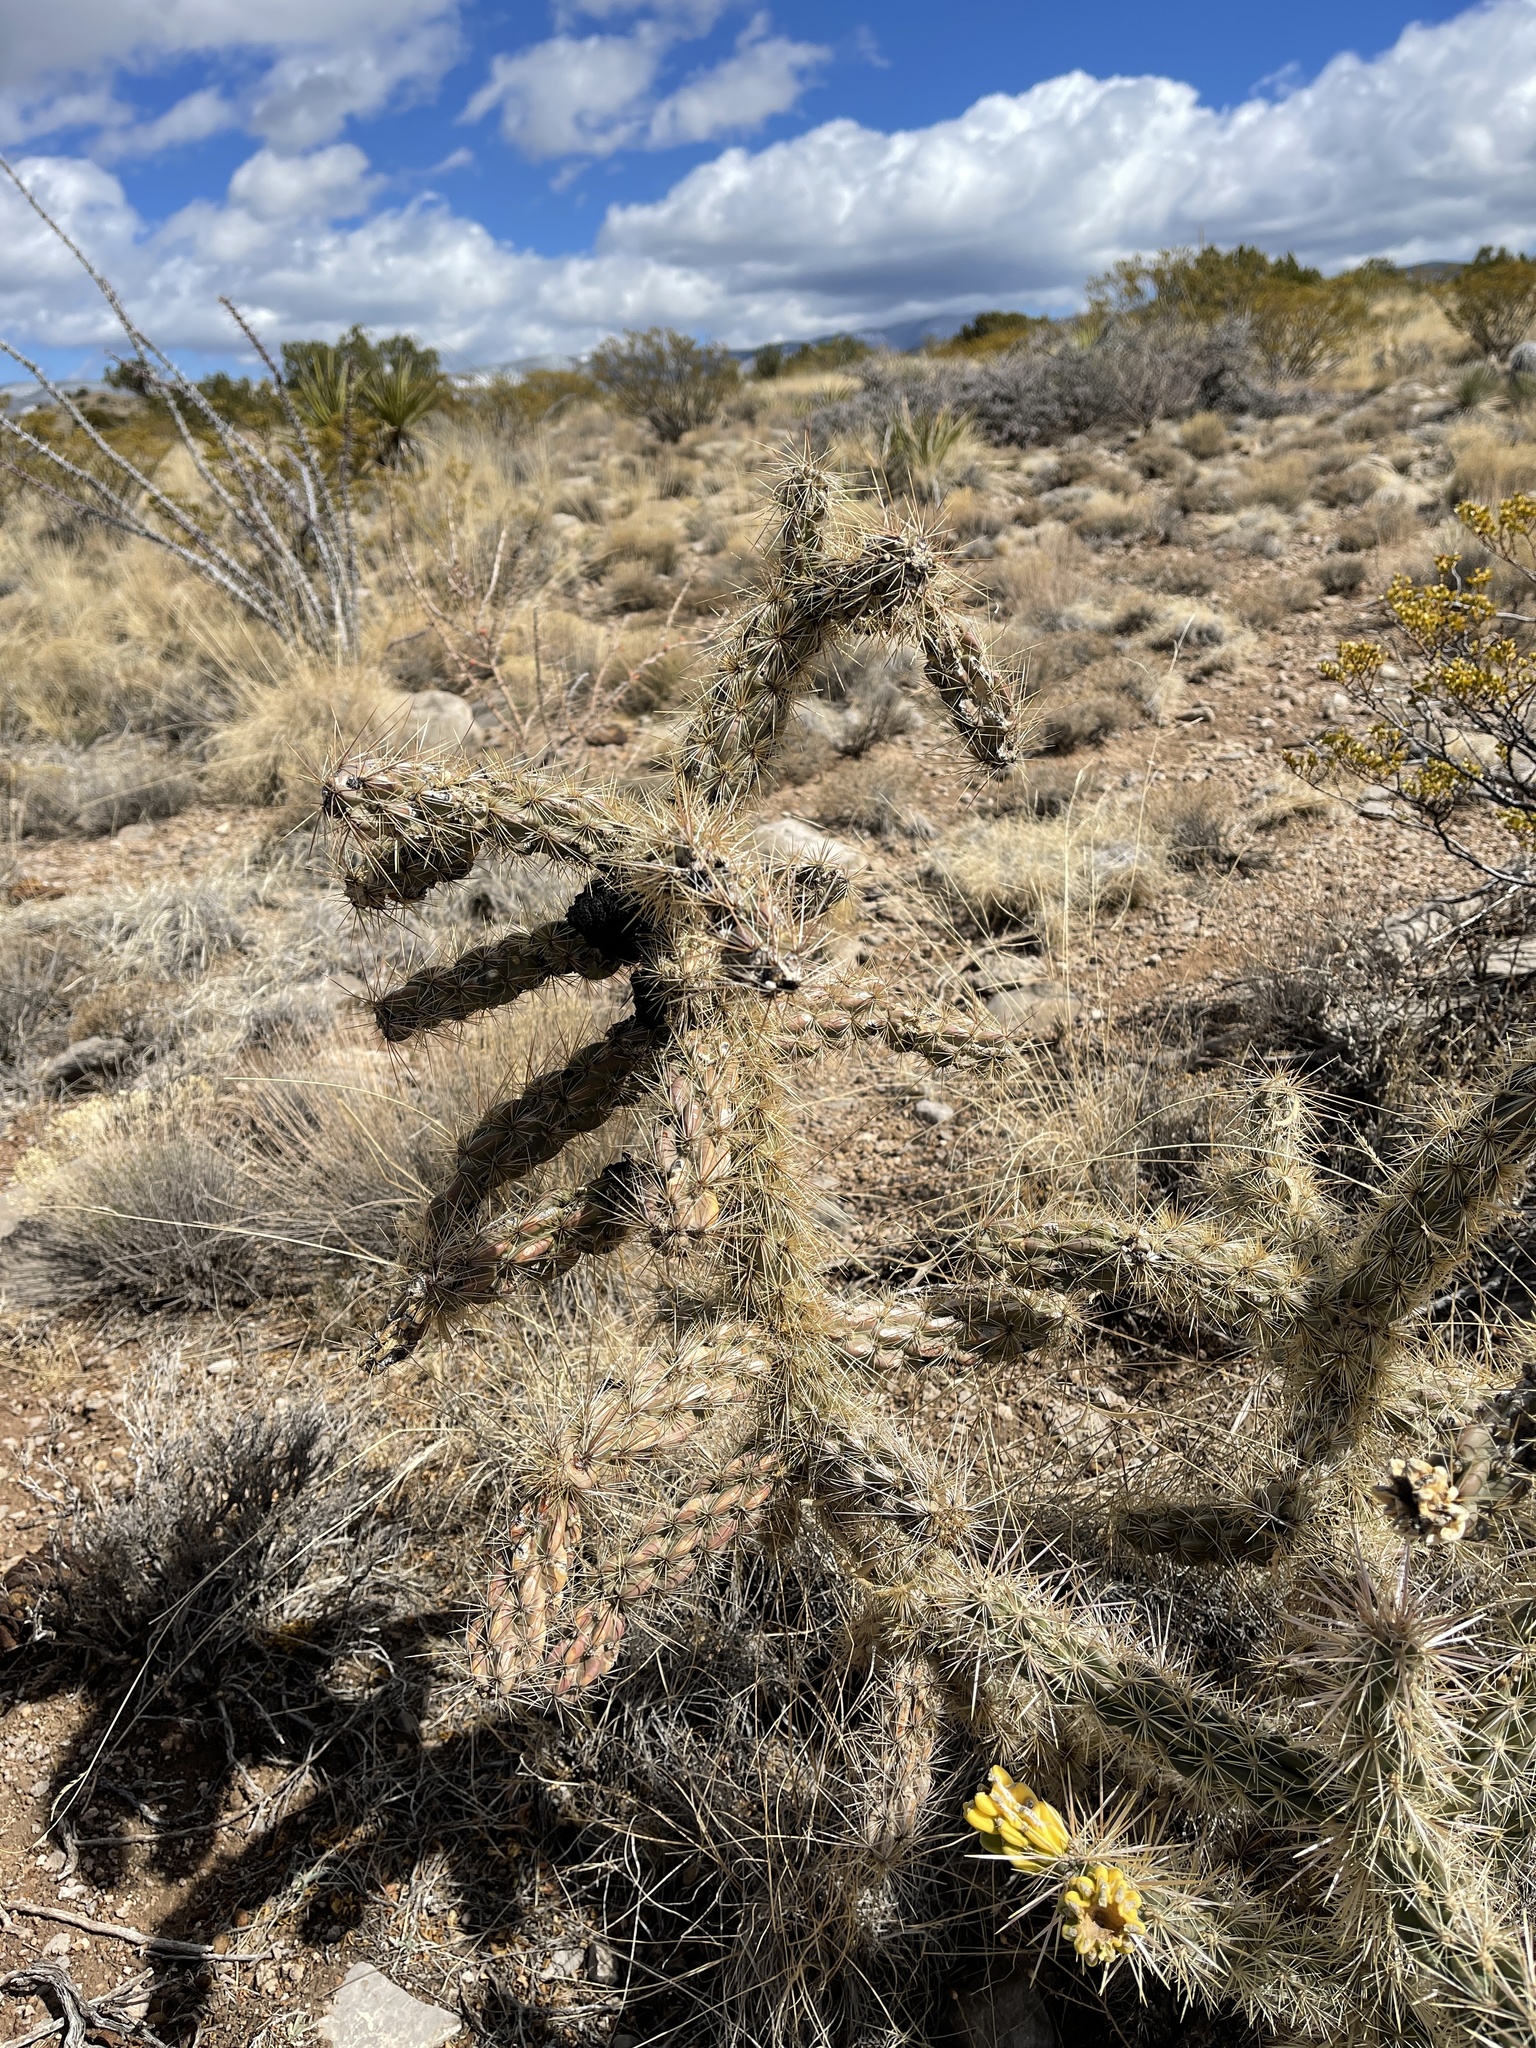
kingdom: Plantae
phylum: Tracheophyta
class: Magnoliopsida
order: Caryophyllales
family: Cactaceae
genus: Cylindropuntia
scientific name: Cylindropuntia imbricata
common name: Candelabrum cactus
